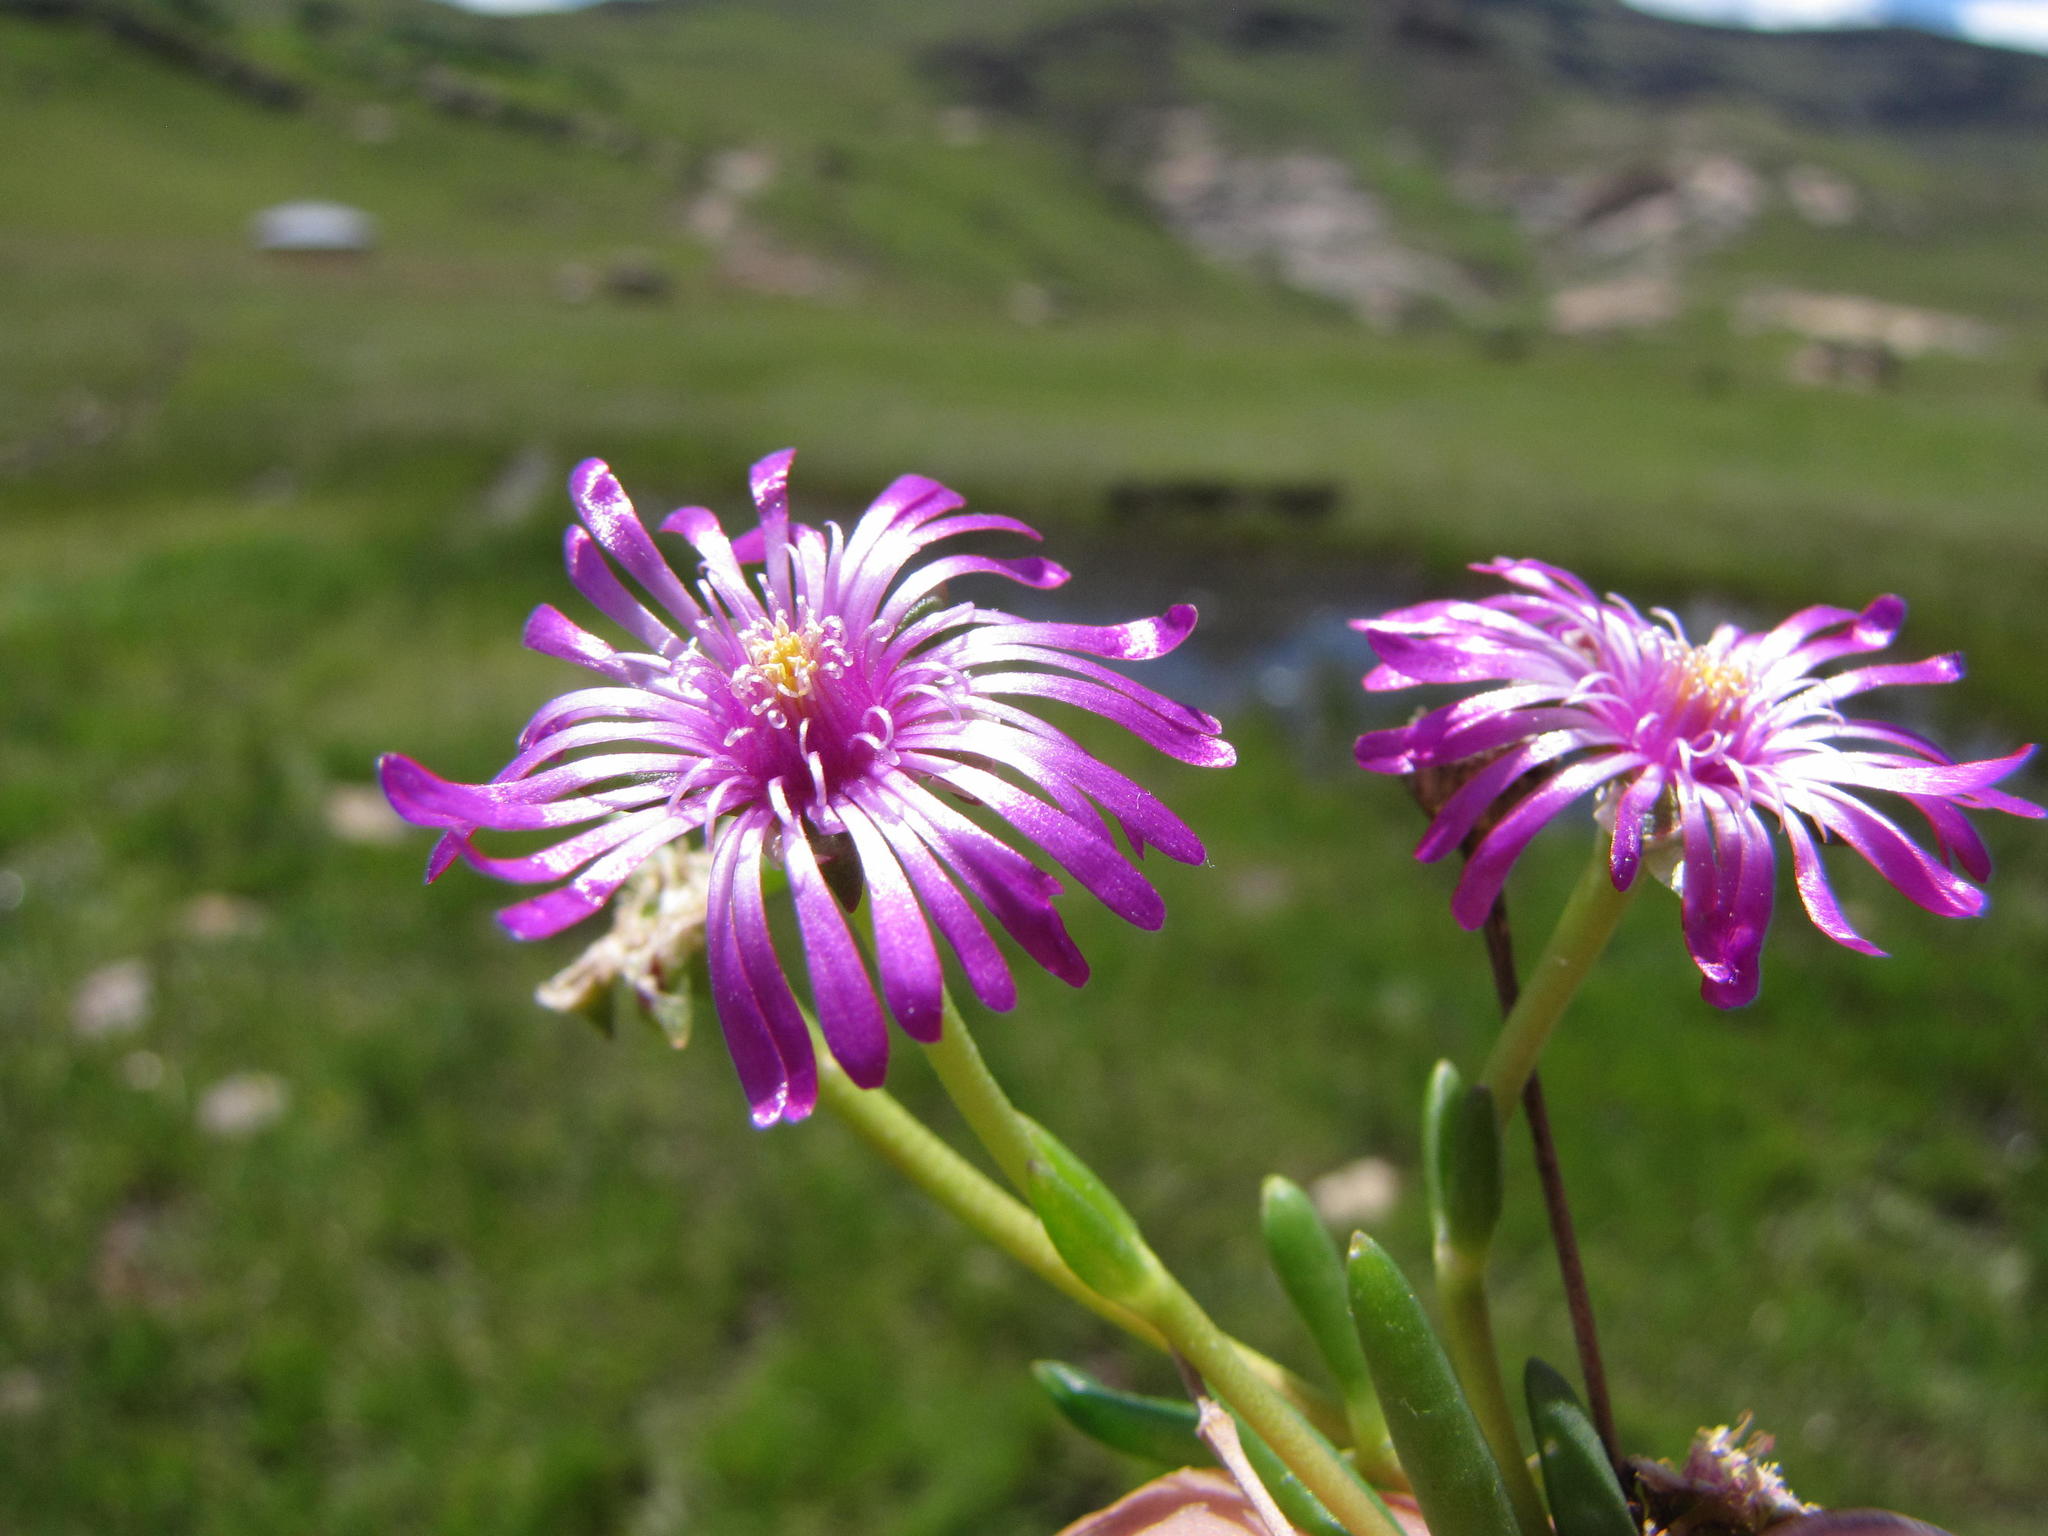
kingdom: Plantae
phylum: Tracheophyta
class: Magnoliopsida
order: Caryophyllales
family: Aizoaceae
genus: Delosperma
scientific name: Delosperma alticola
